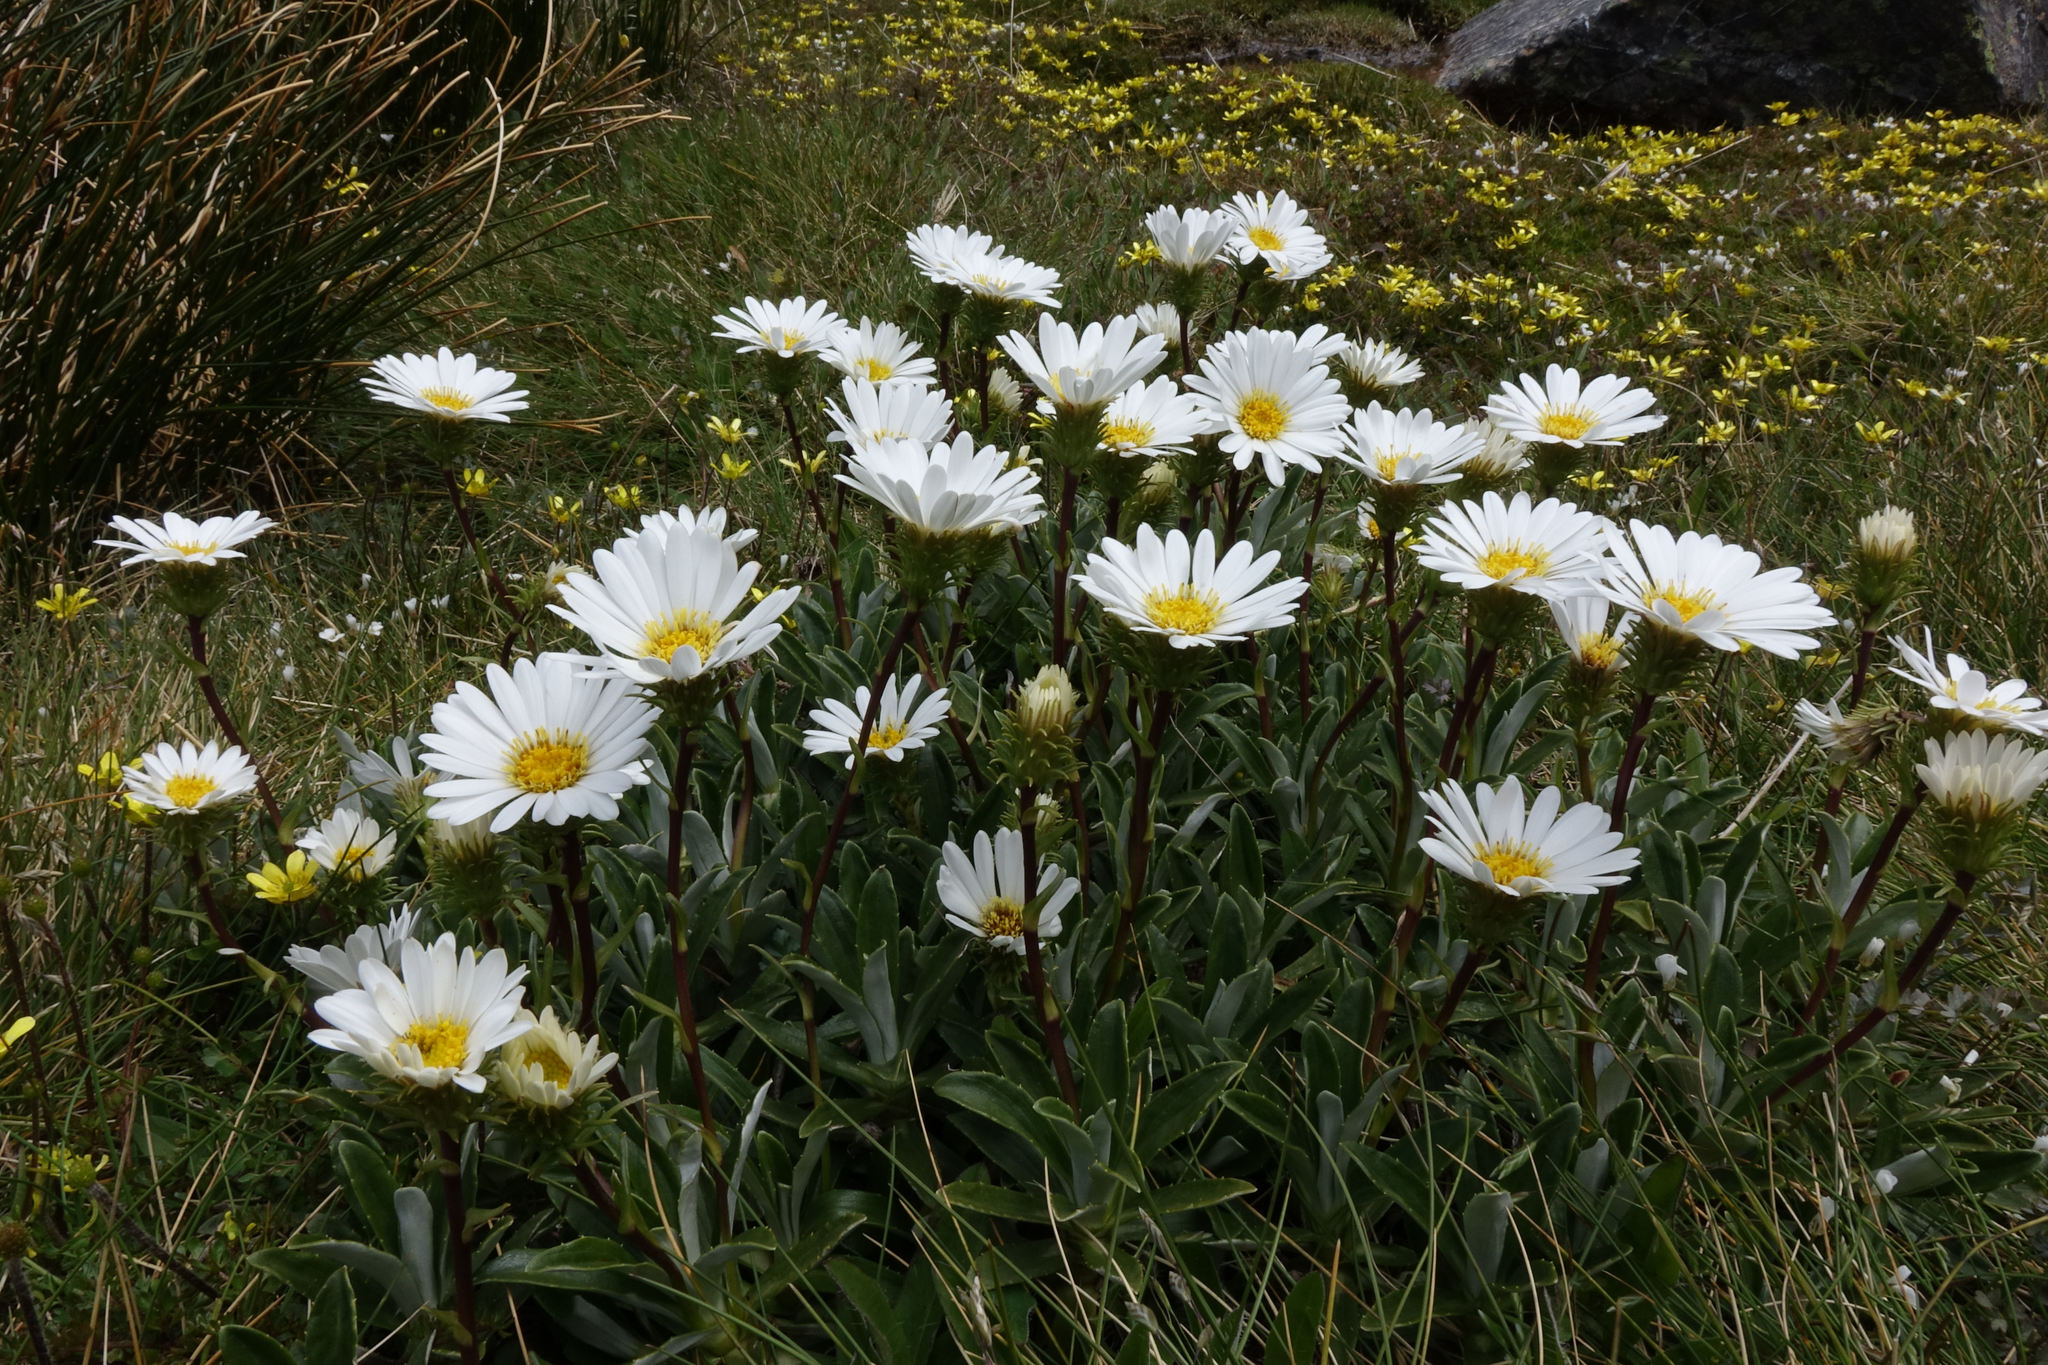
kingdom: Plantae
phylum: Tracheophyta
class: Magnoliopsida
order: Asterales
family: Asteraceae
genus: Celmisia
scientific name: Celmisia angustifolia
